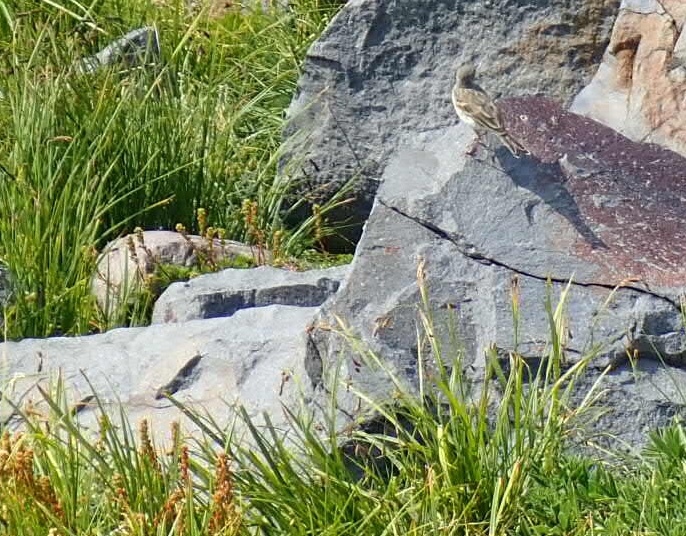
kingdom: Animalia
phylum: Chordata
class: Aves
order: Passeriformes
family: Motacillidae
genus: Anthus
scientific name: Anthus rubescens
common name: Buff-bellied pipit
